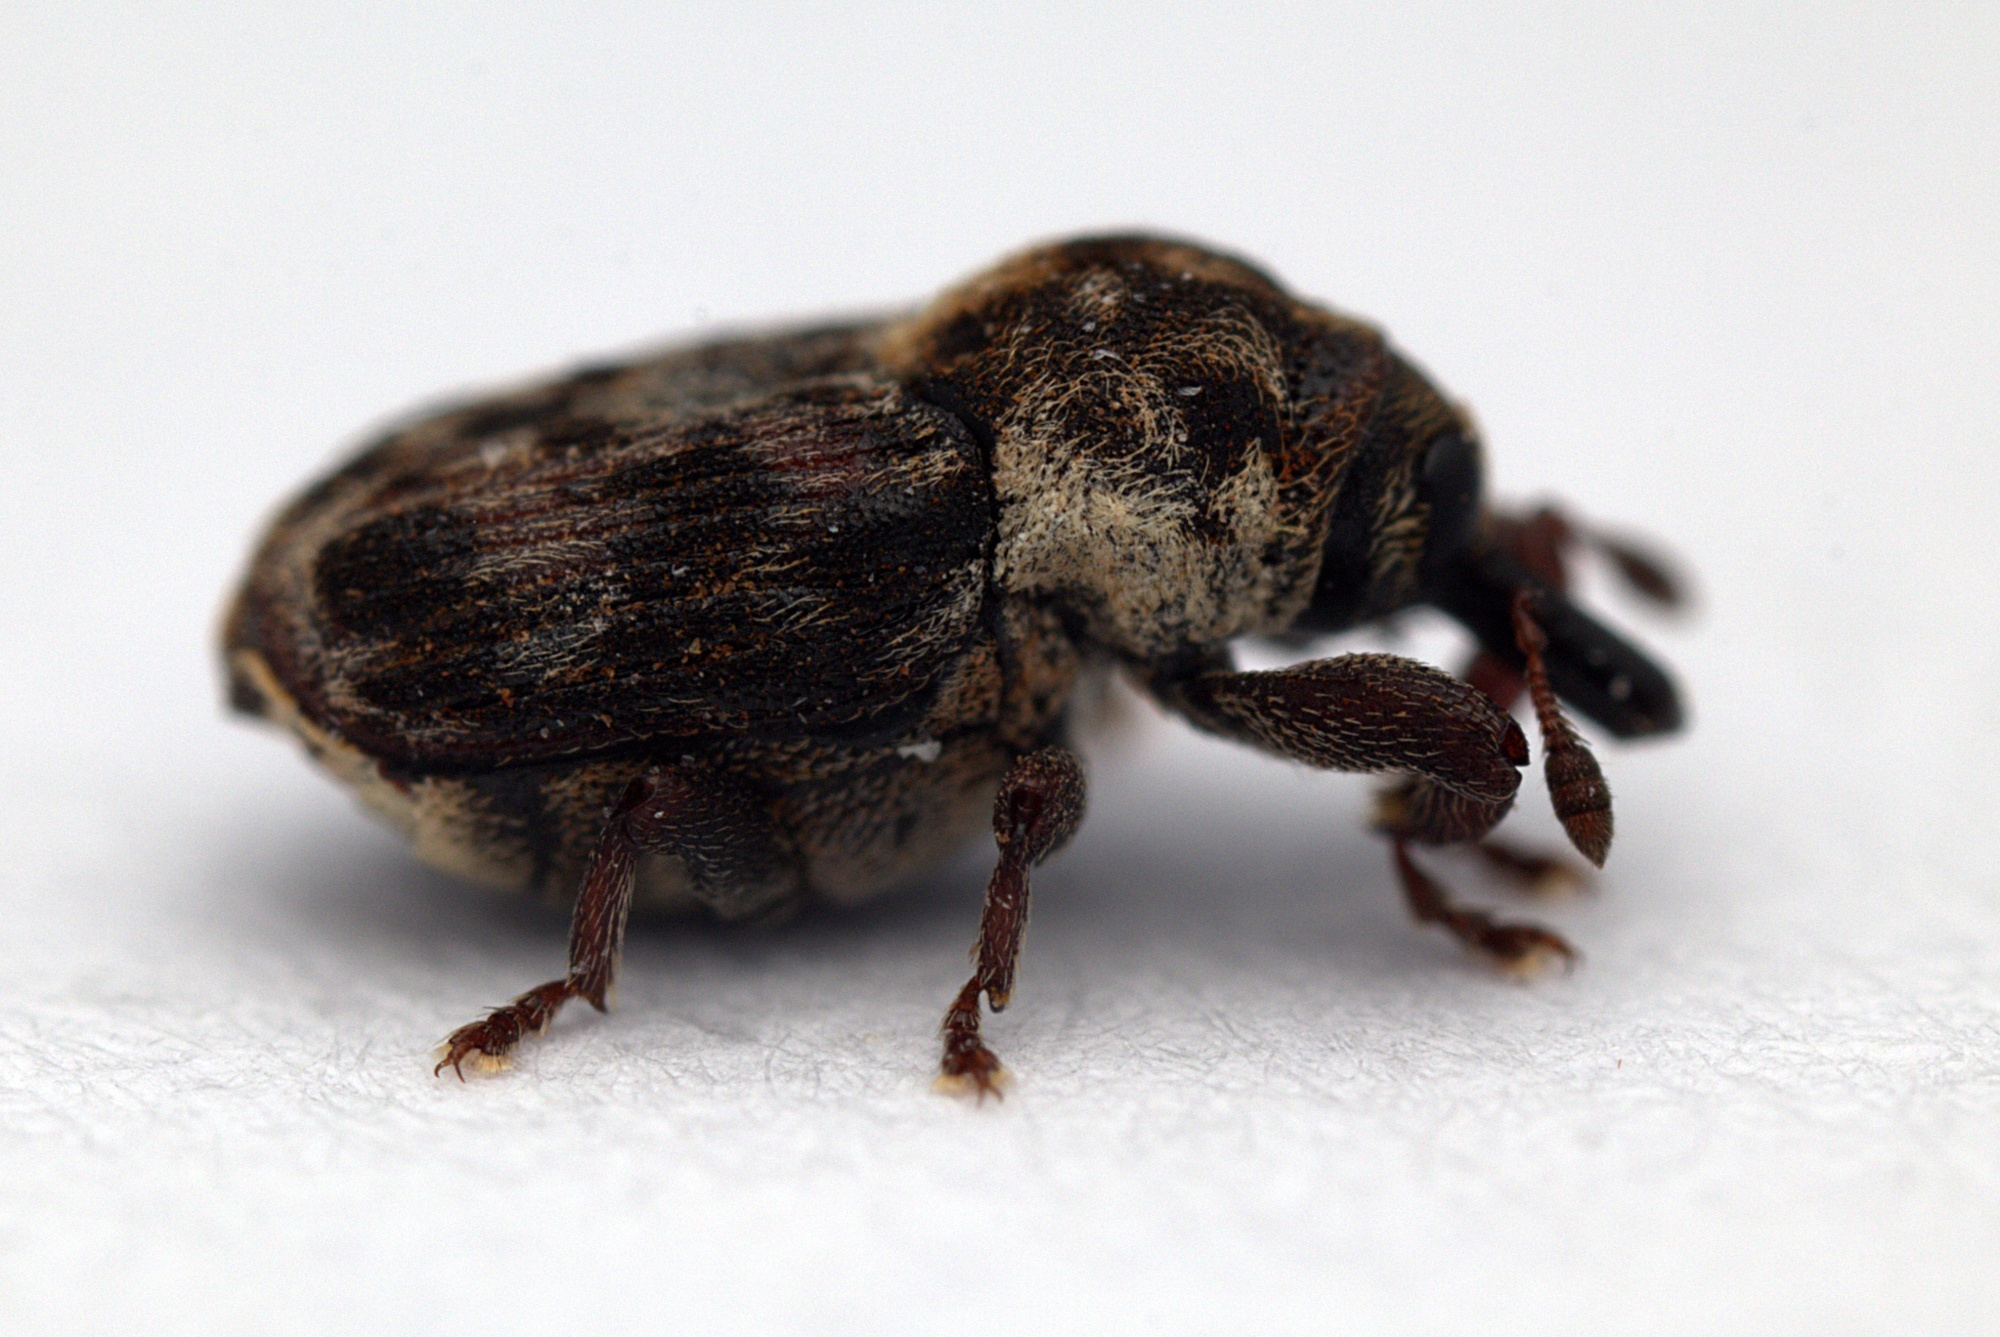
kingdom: Animalia
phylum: Arthropoda
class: Insecta
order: Coleoptera
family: Curculionidae
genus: Neolaemosaccus
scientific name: Neolaemosaccus narinus
